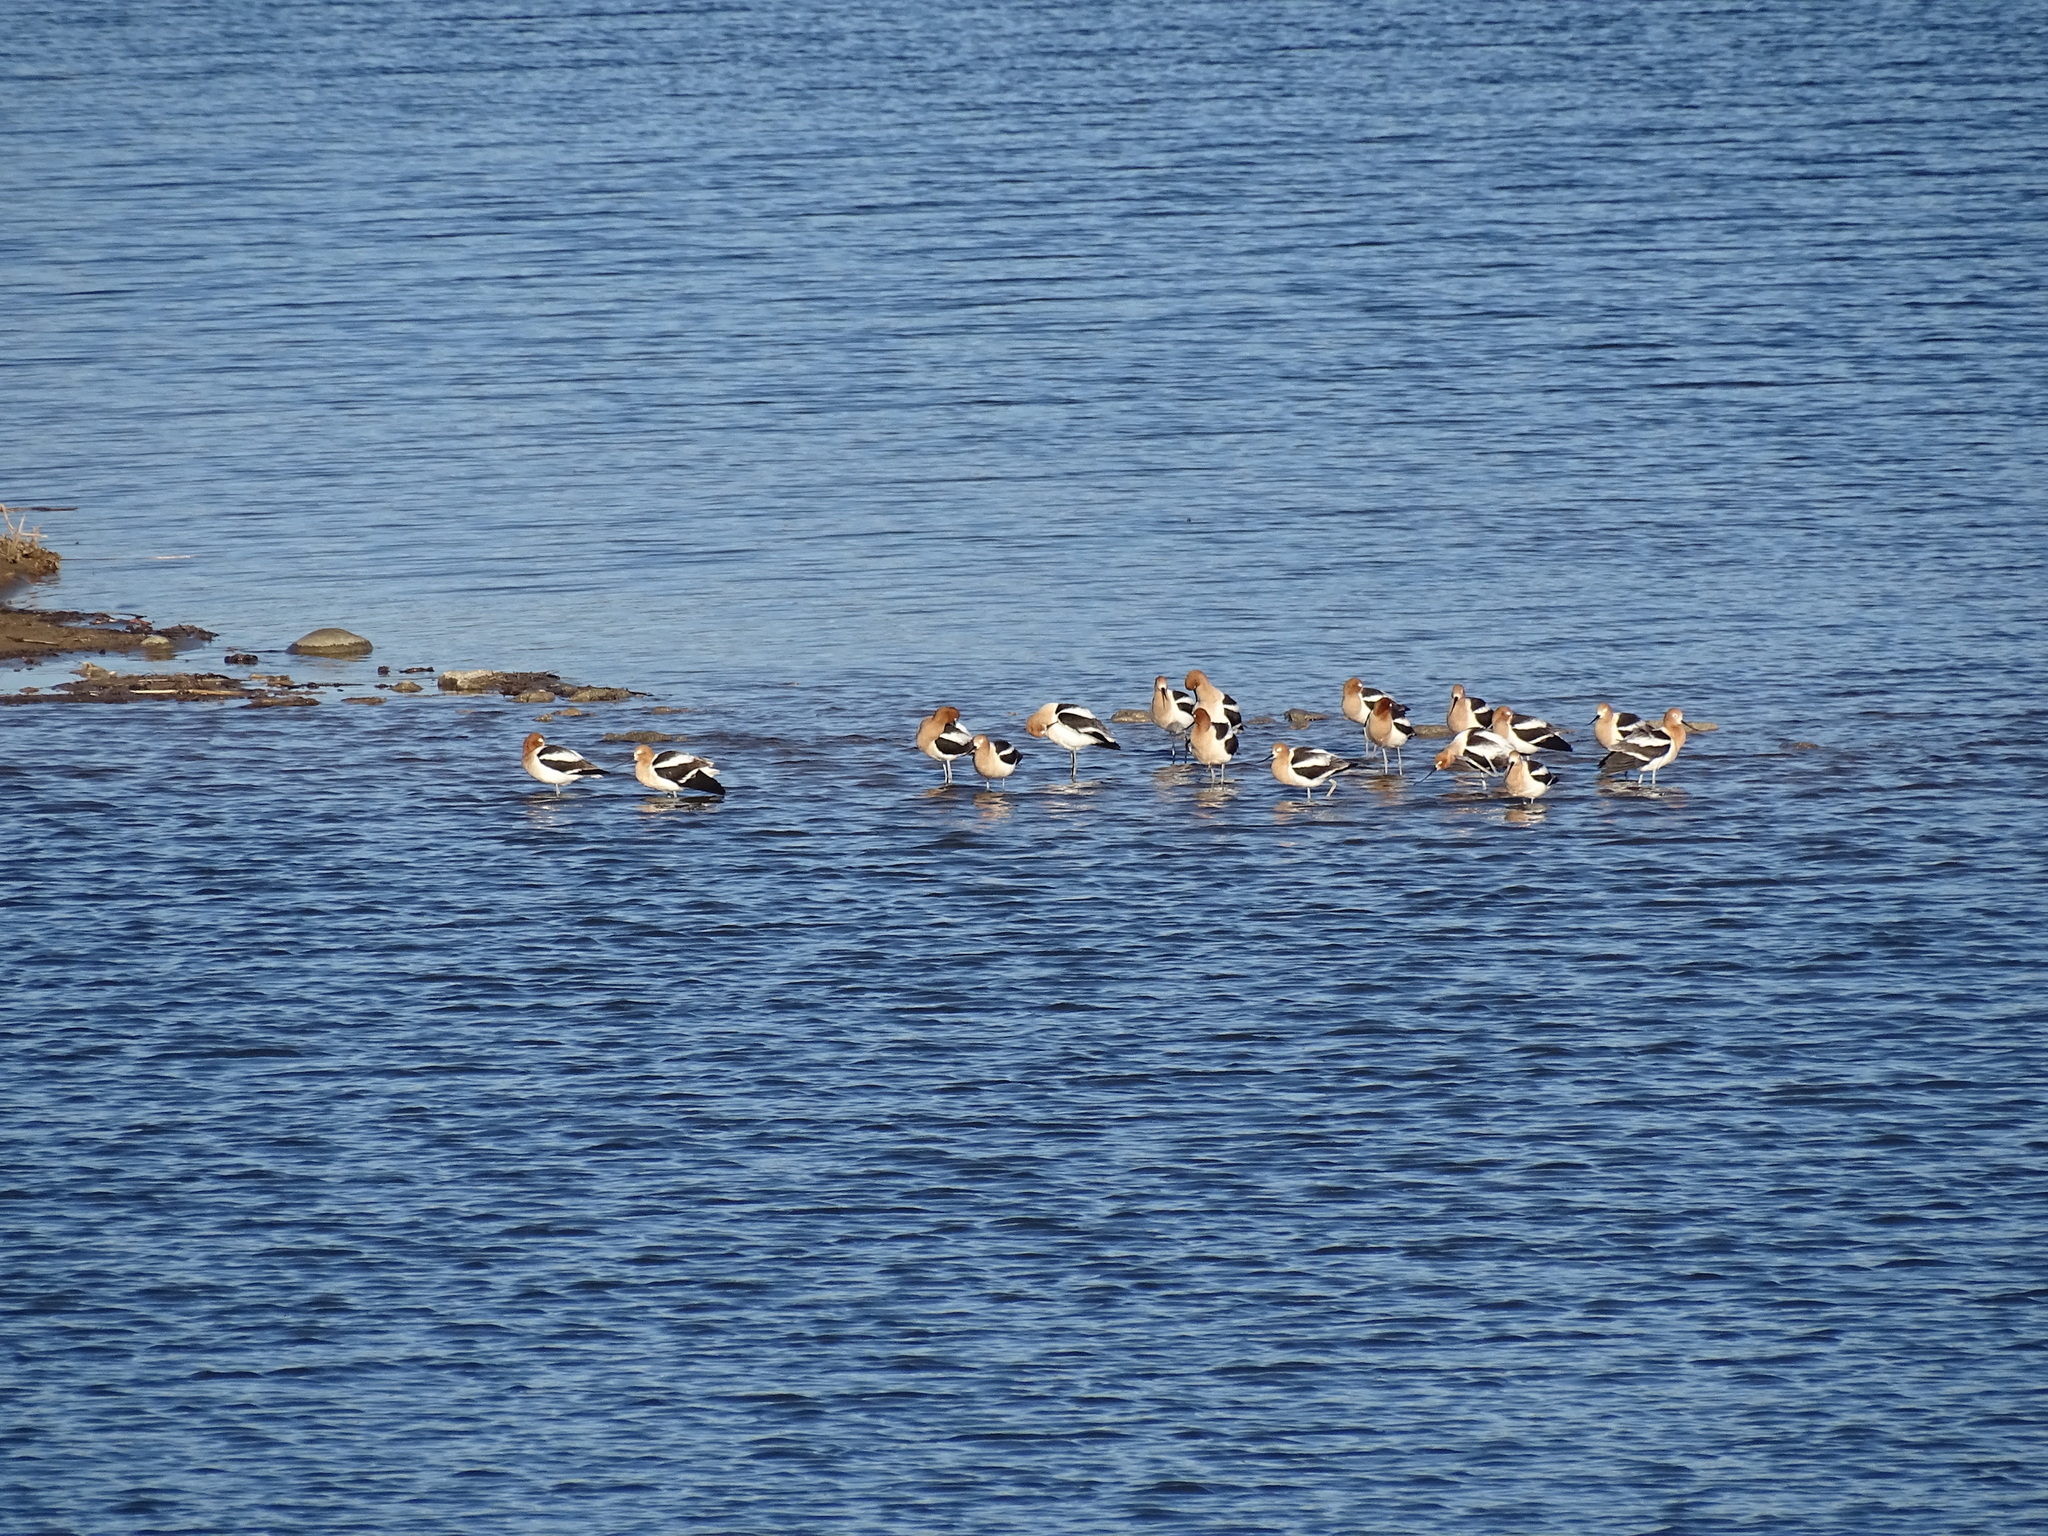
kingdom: Animalia
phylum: Chordata
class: Aves
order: Charadriiformes
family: Recurvirostridae
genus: Recurvirostra
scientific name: Recurvirostra americana
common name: American avocet
